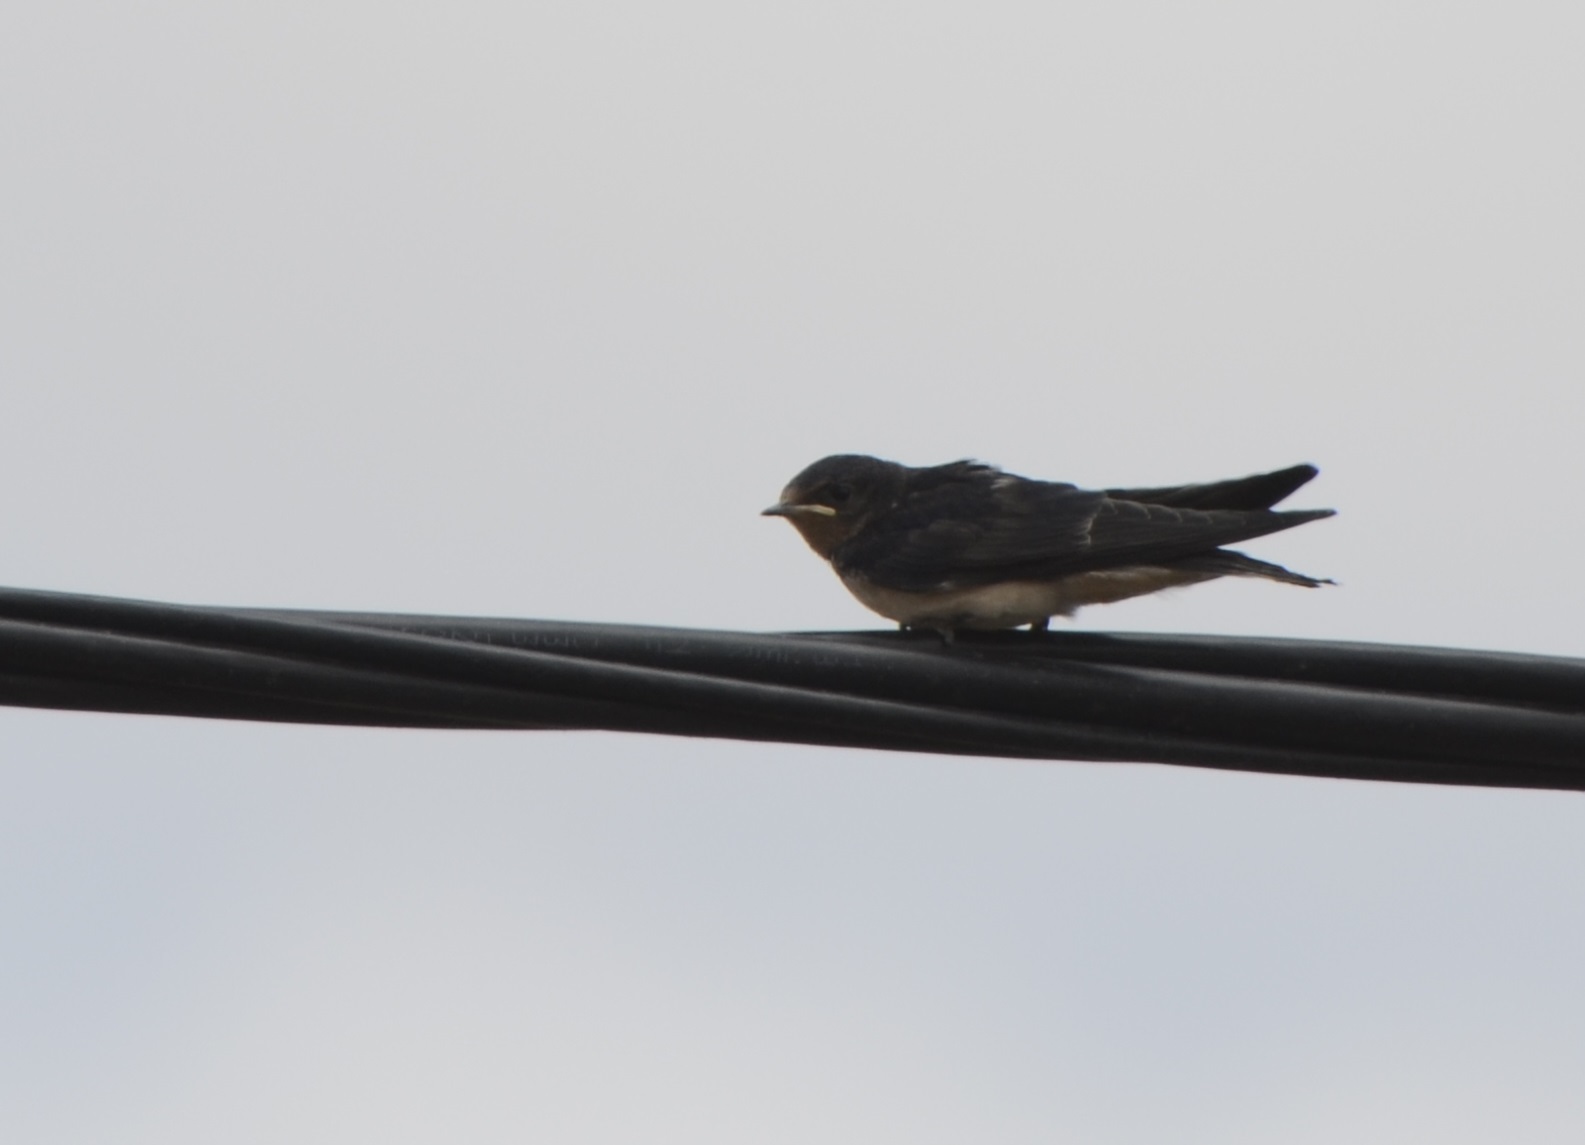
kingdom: Animalia
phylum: Chordata
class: Aves
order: Passeriformes
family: Hirundinidae
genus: Hirundo
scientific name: Hirundo rustica
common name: Barn swallow
